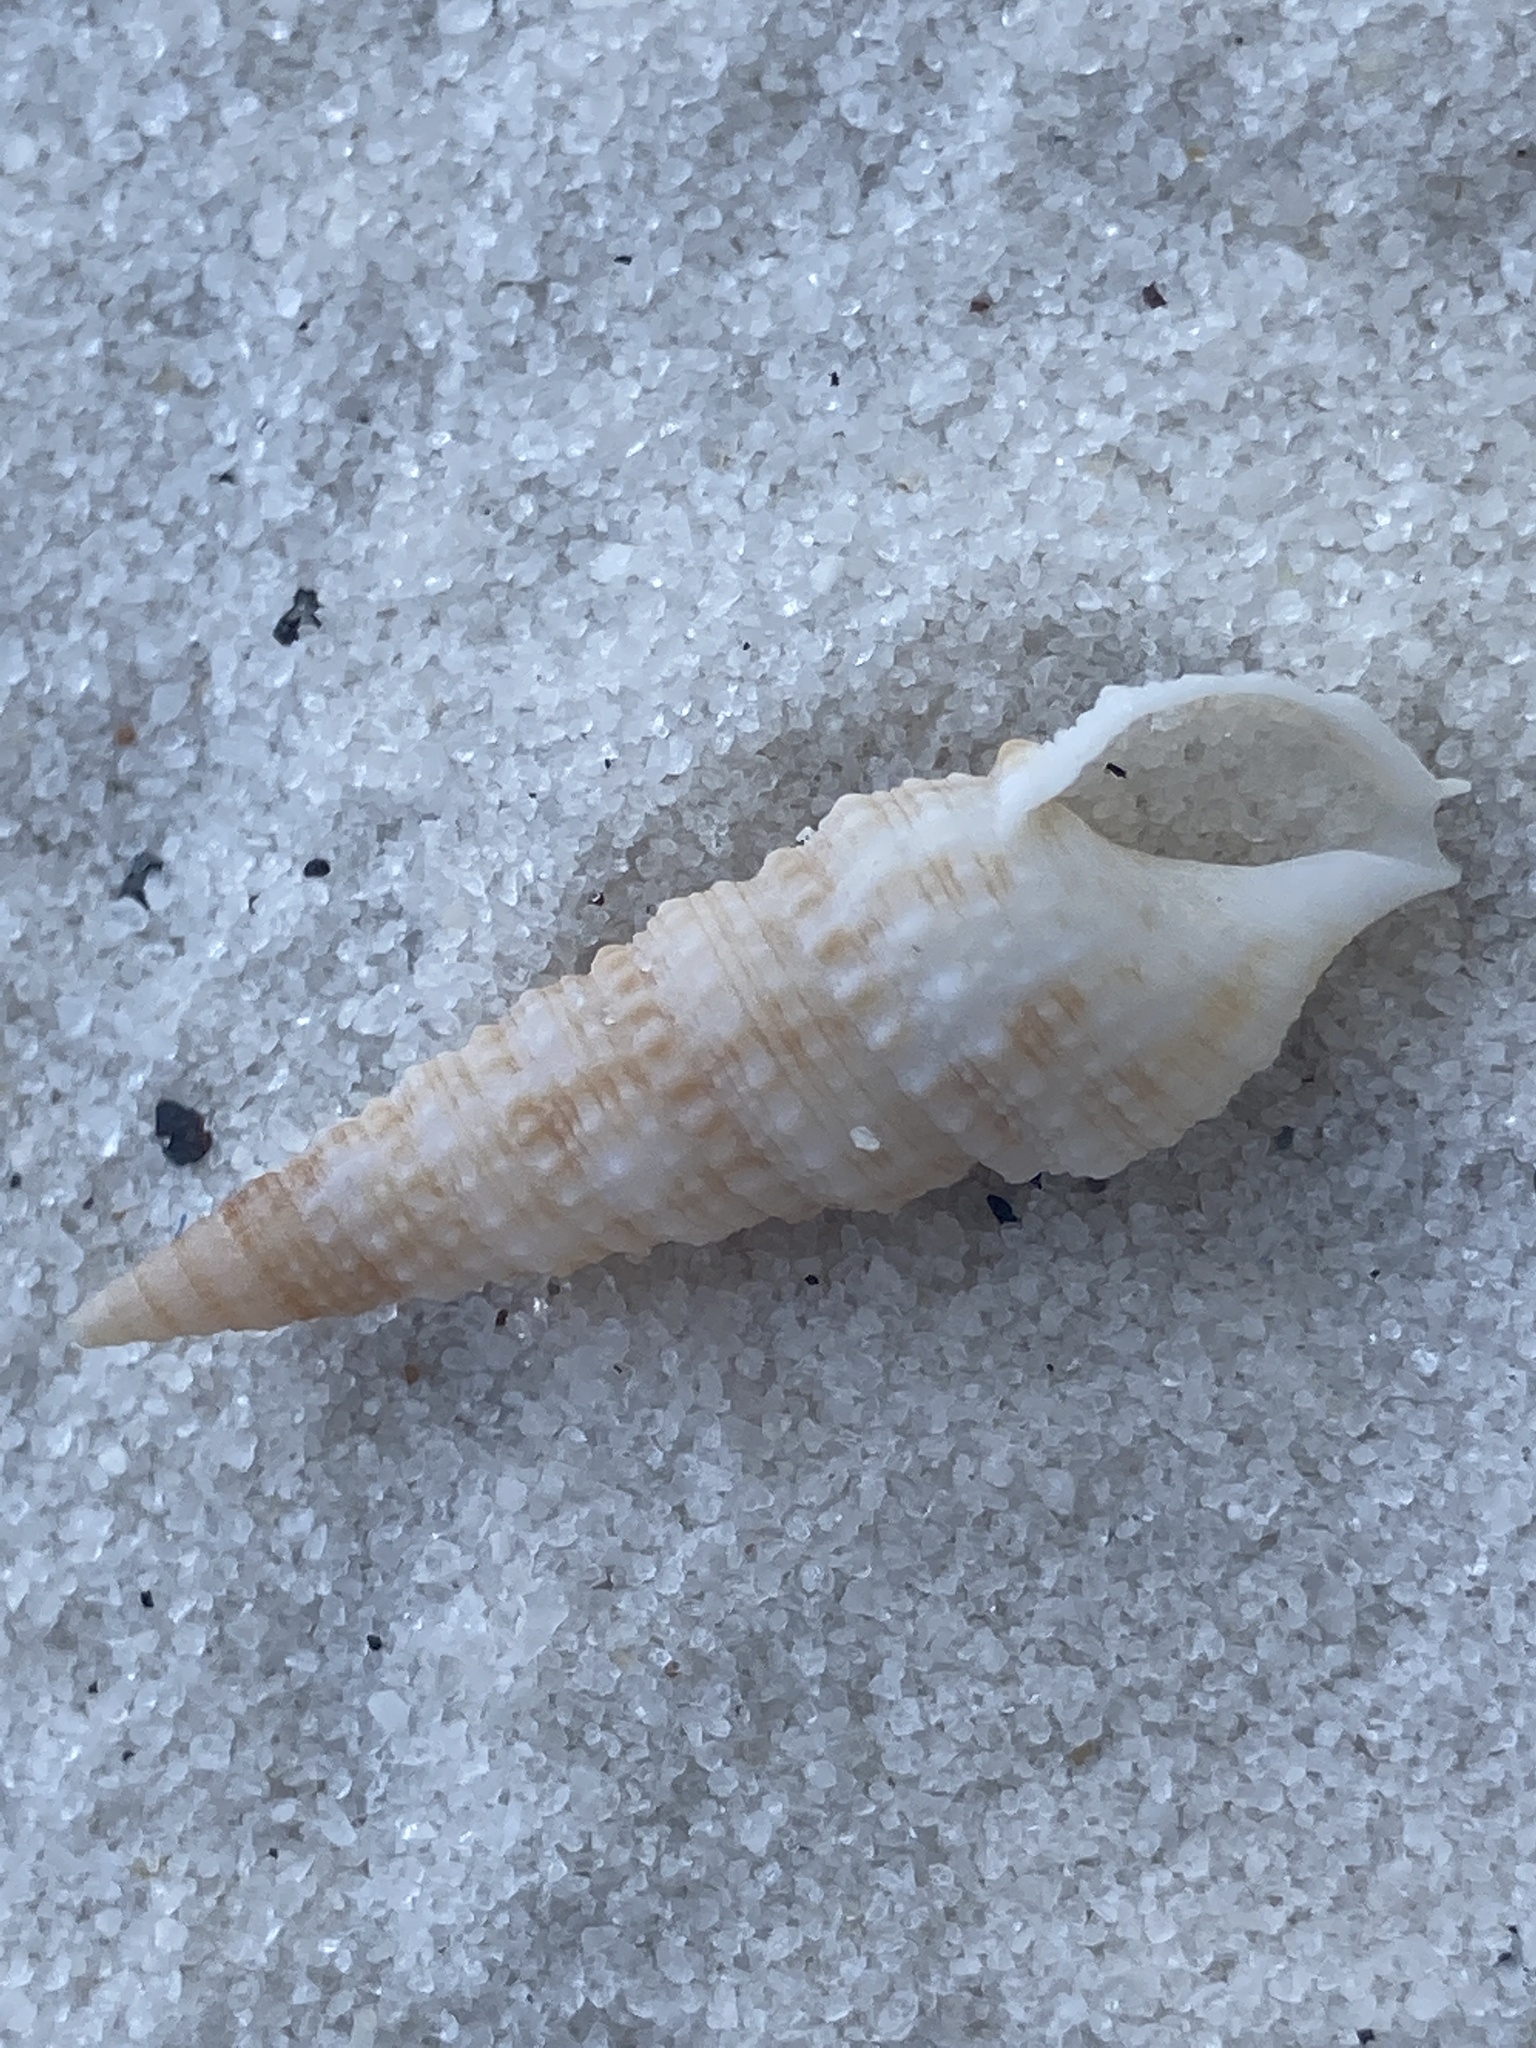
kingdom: Animalia
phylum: Mollusca
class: Gastropoda
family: Cerithiidae
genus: Cerithium
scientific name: Cerithium atratum
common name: Dark cerith
